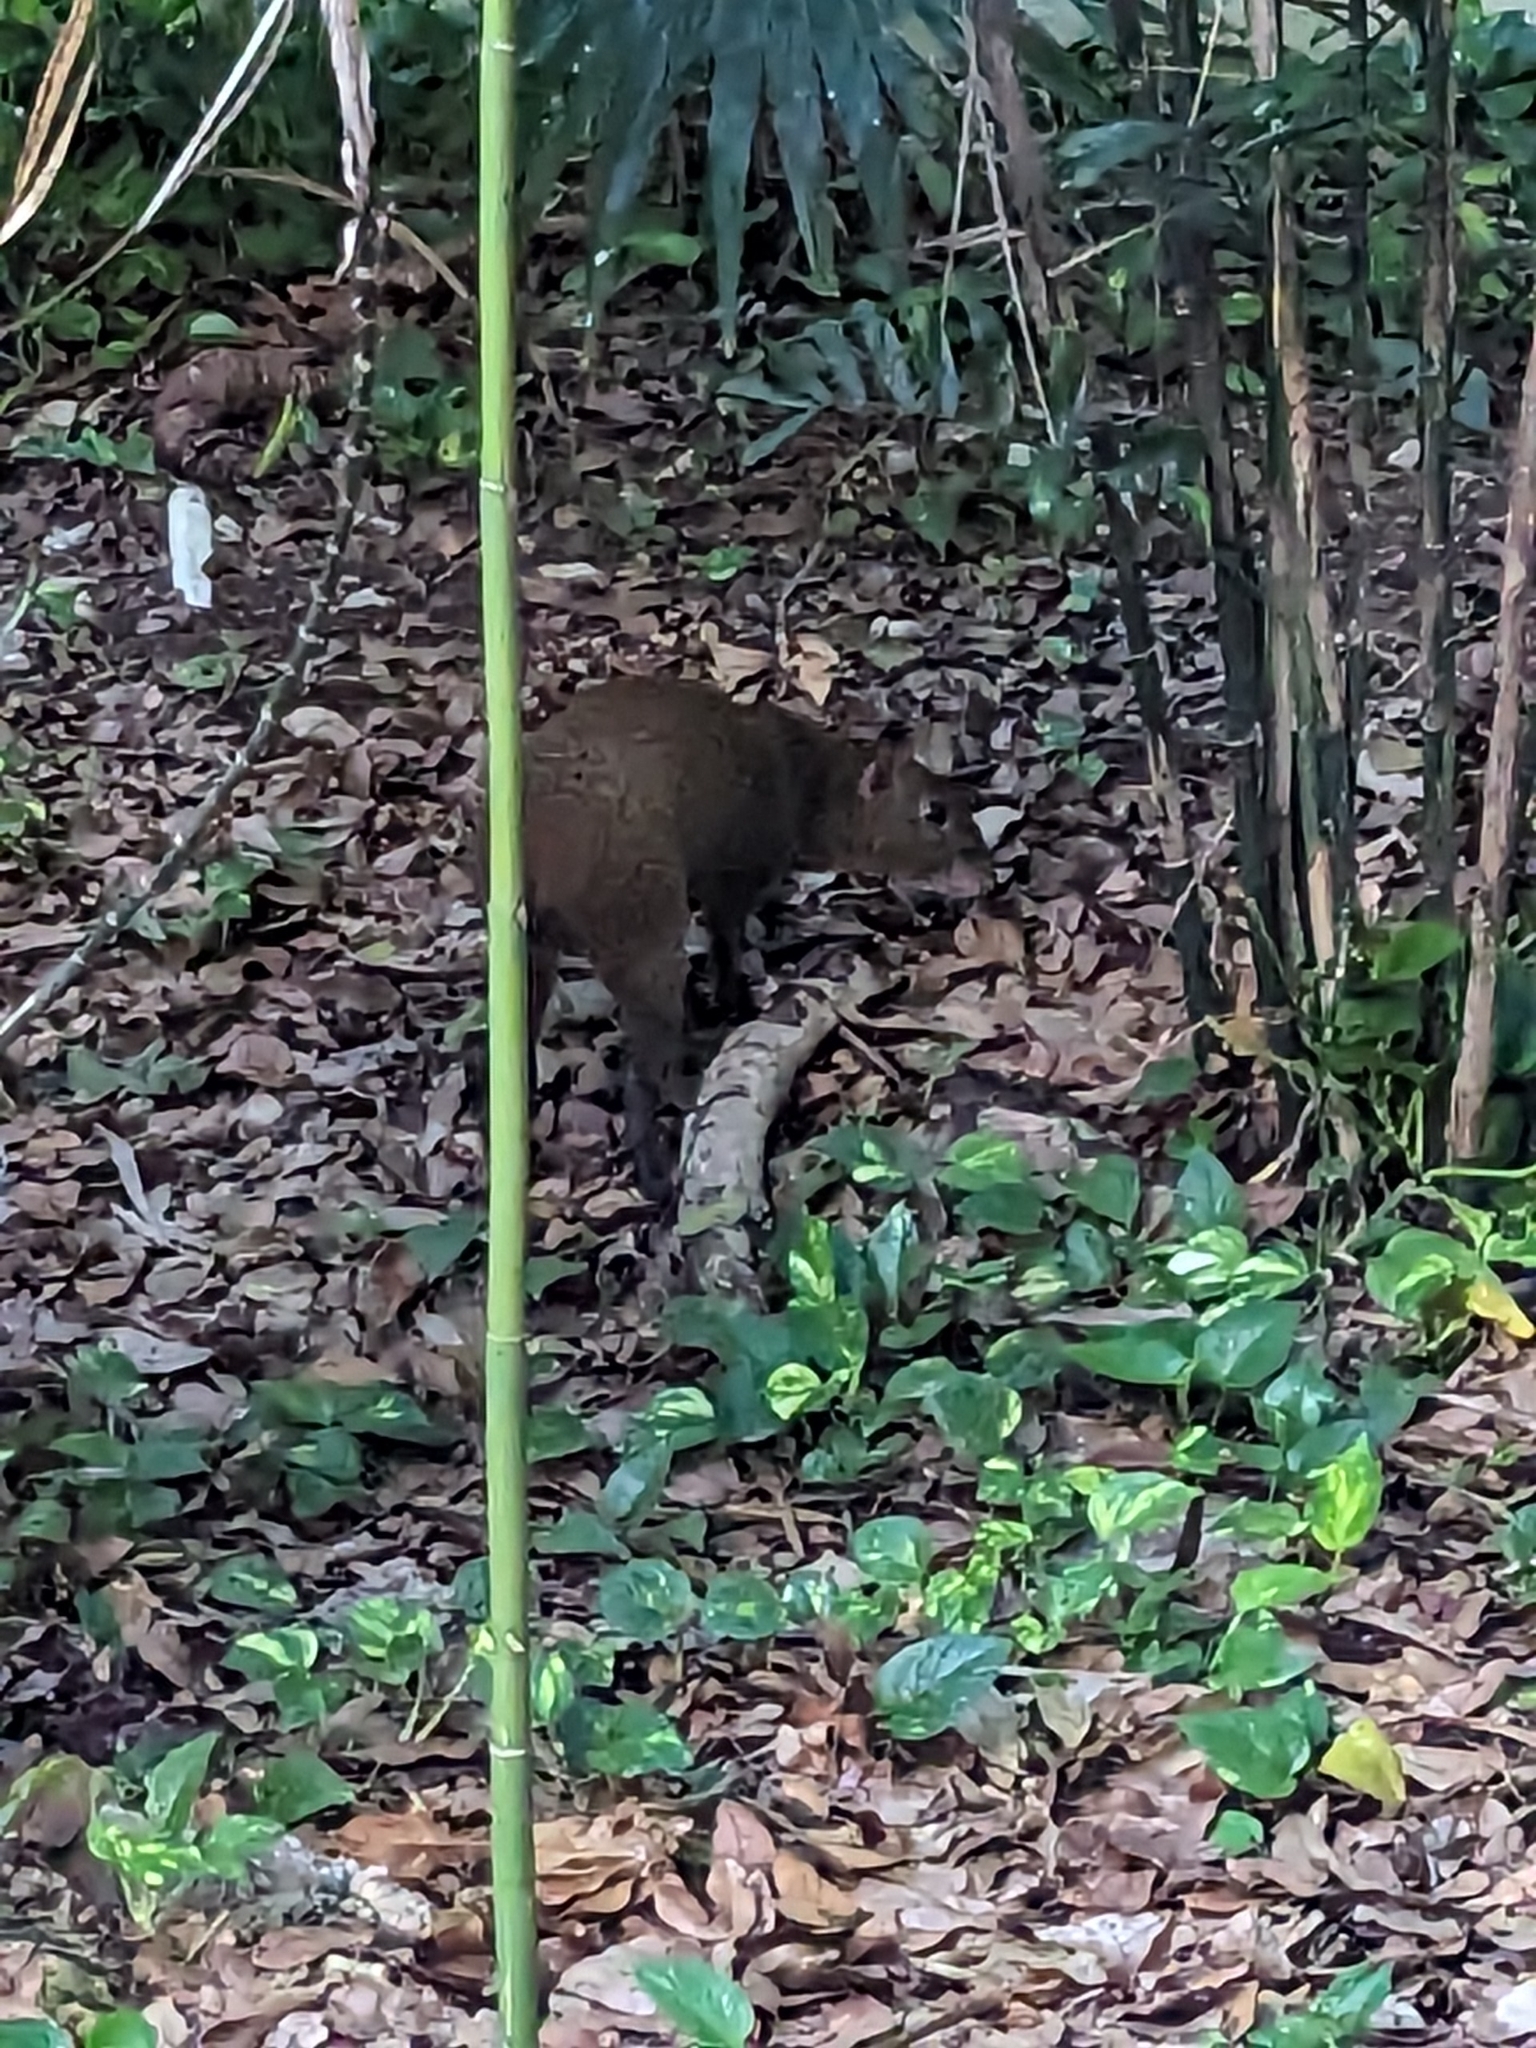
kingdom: Animalia
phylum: Chordata
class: Mammalia
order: Rodentia
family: Dasyproctidae
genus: Dasyprocta
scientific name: Dasyprocta punctata
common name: Central american agouti
